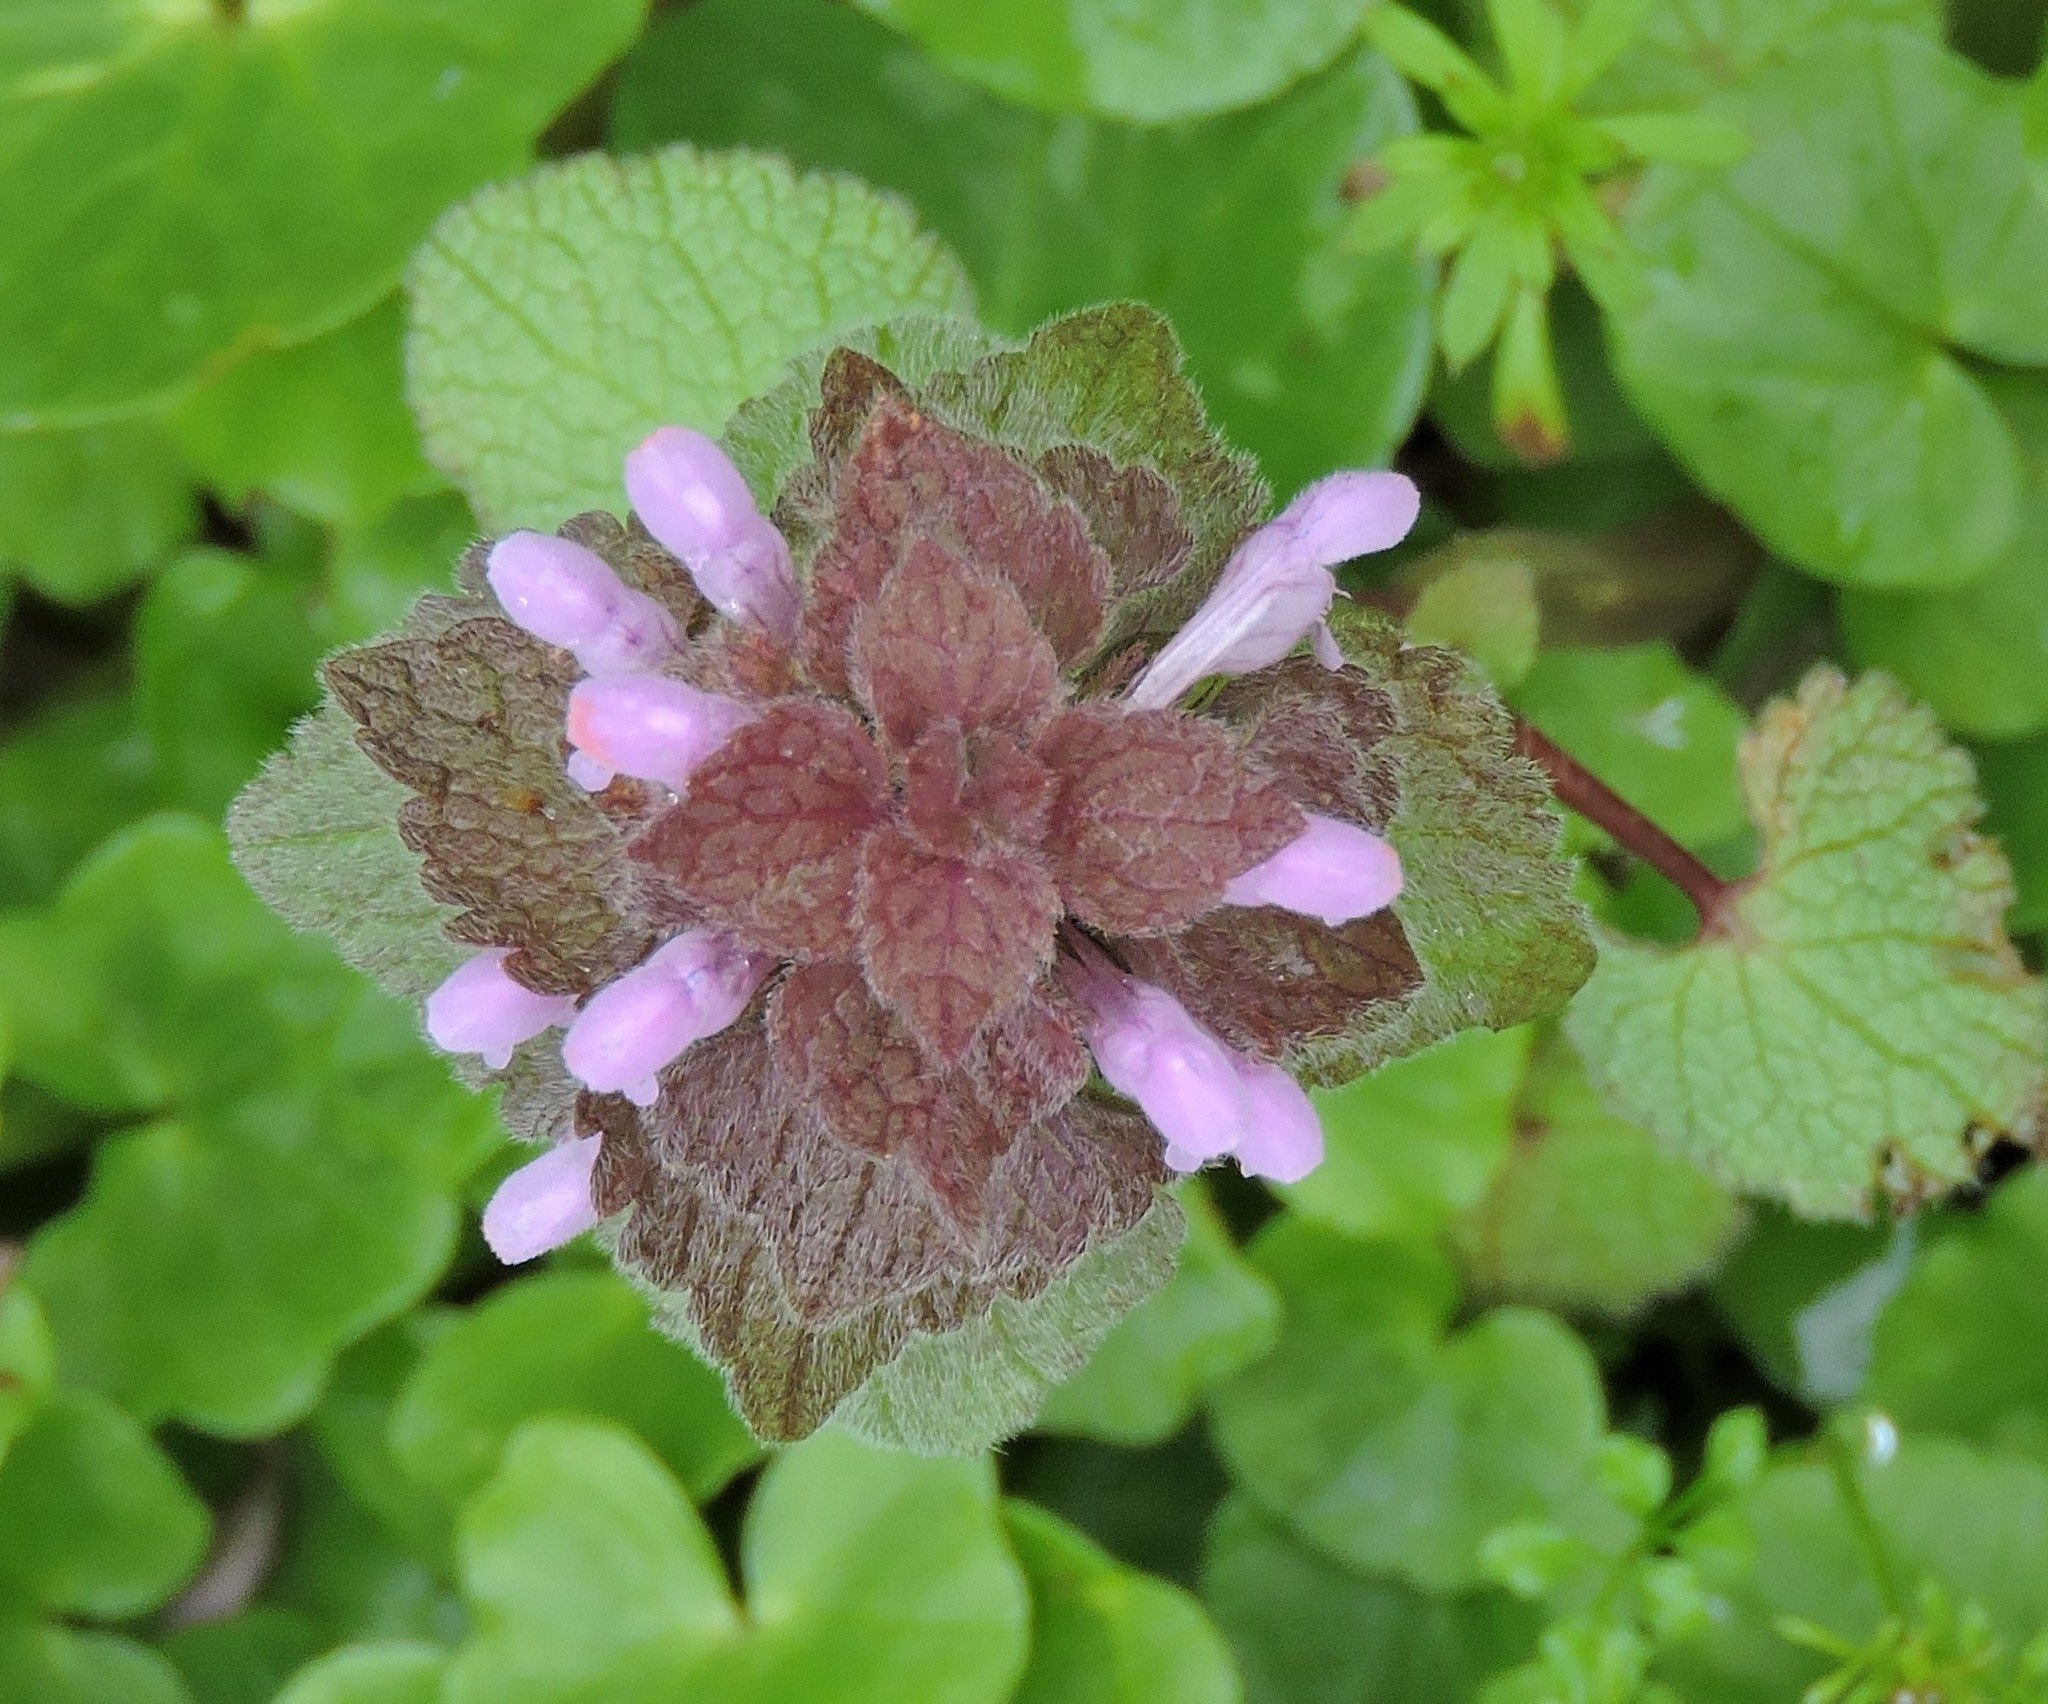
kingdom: Plantae
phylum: Tracheophyta
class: Magnoliopsida
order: Lamiales
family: Lamiaceae
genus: Lamium
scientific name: Lamium purpureum
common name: Red dead-nettle
